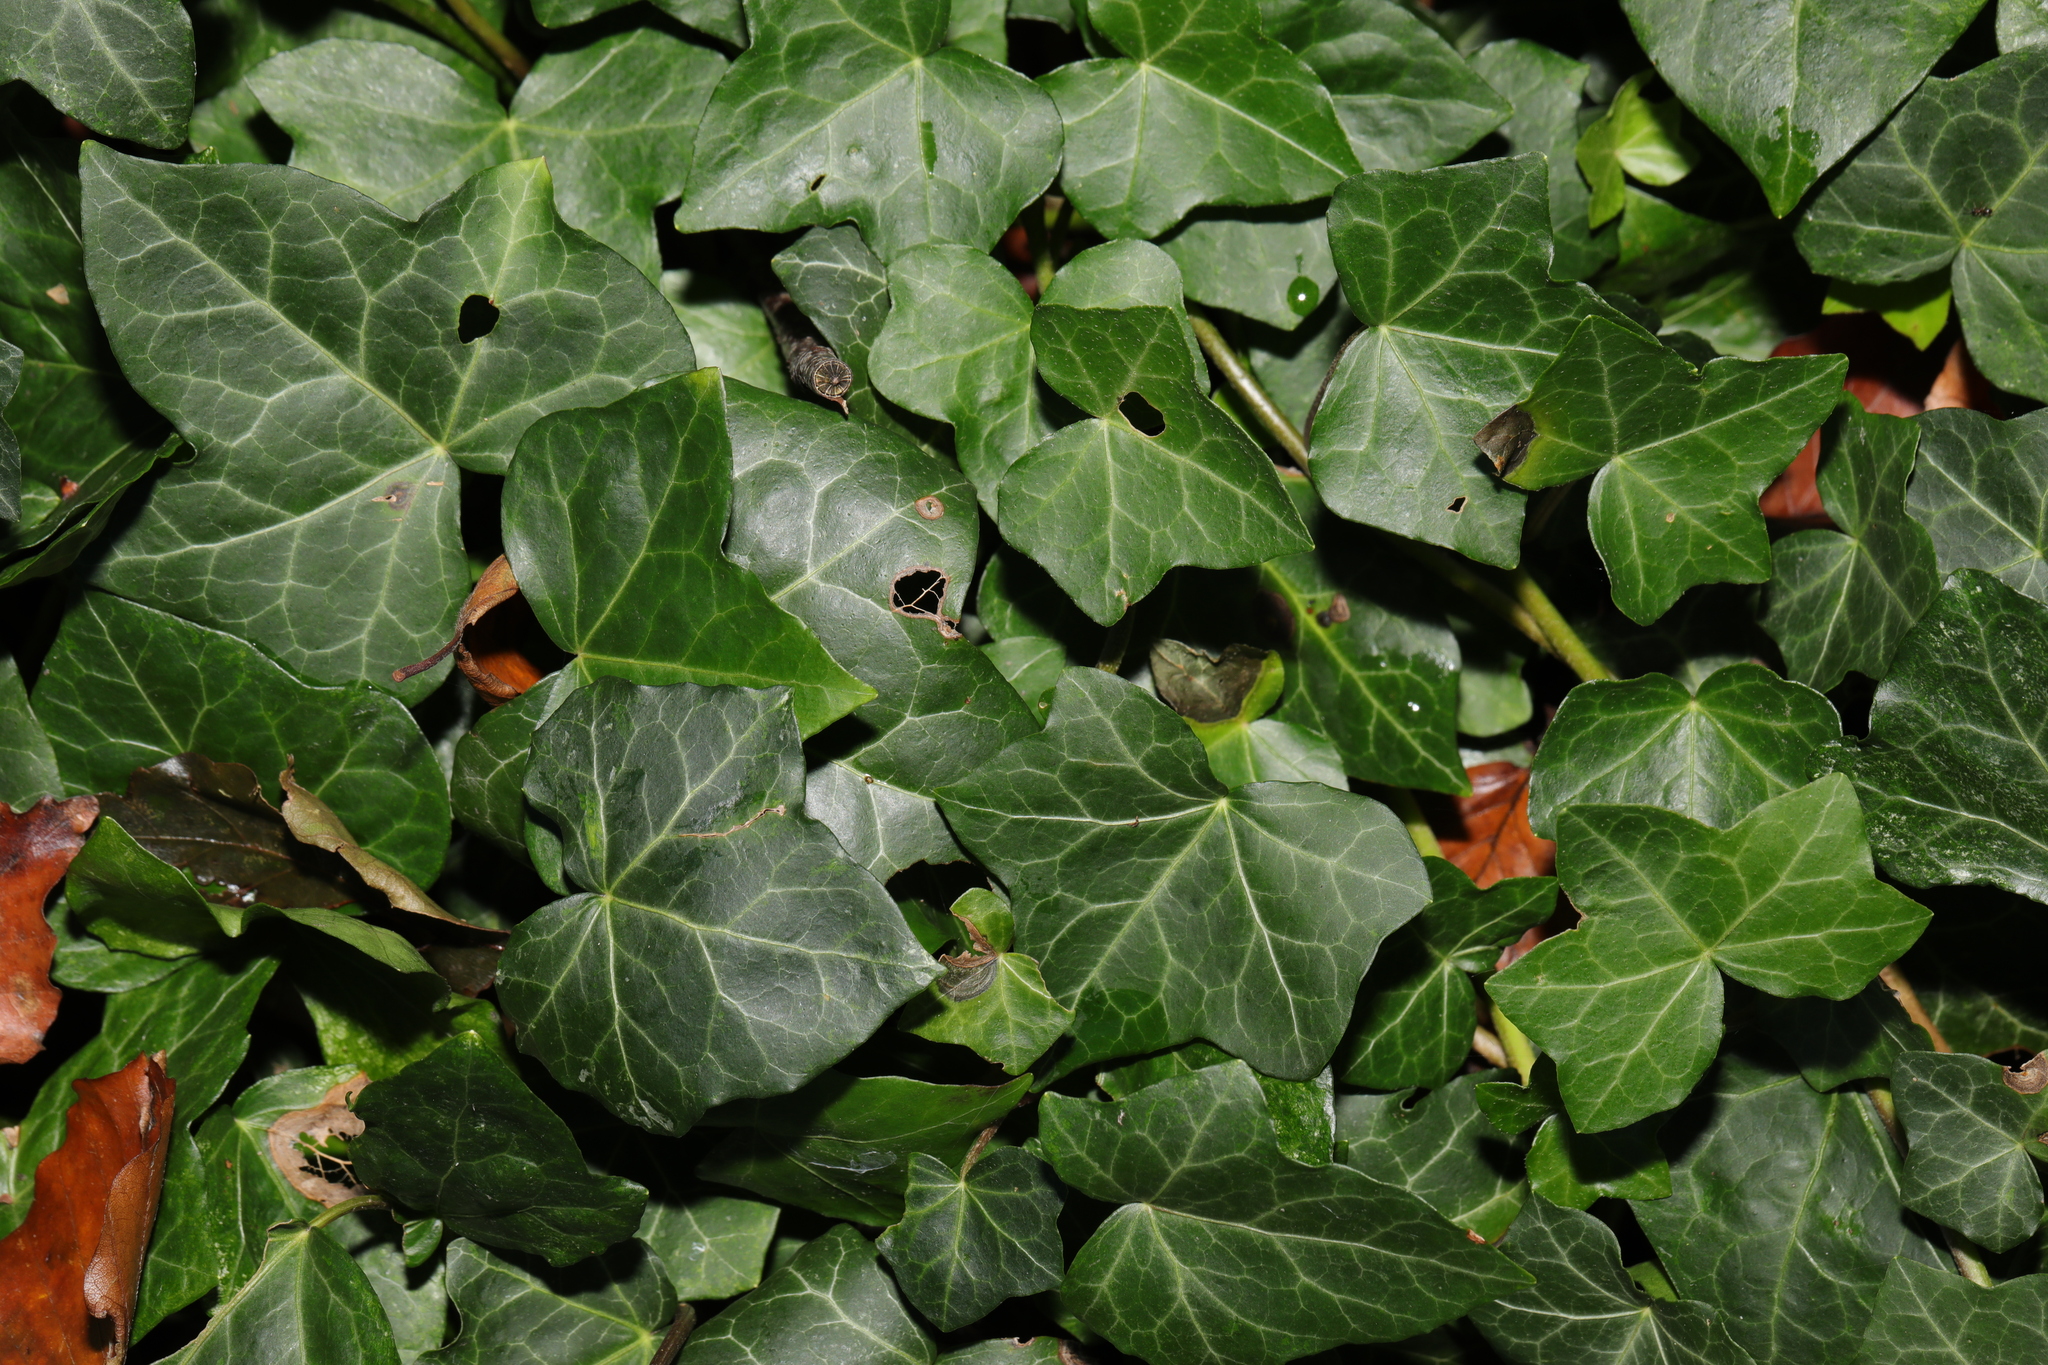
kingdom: Plantae
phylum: Tracheophyta
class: Magnoliopsida
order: Apiales
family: Araliaceae
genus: Hedera
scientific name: Hedera helix
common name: Ivy
